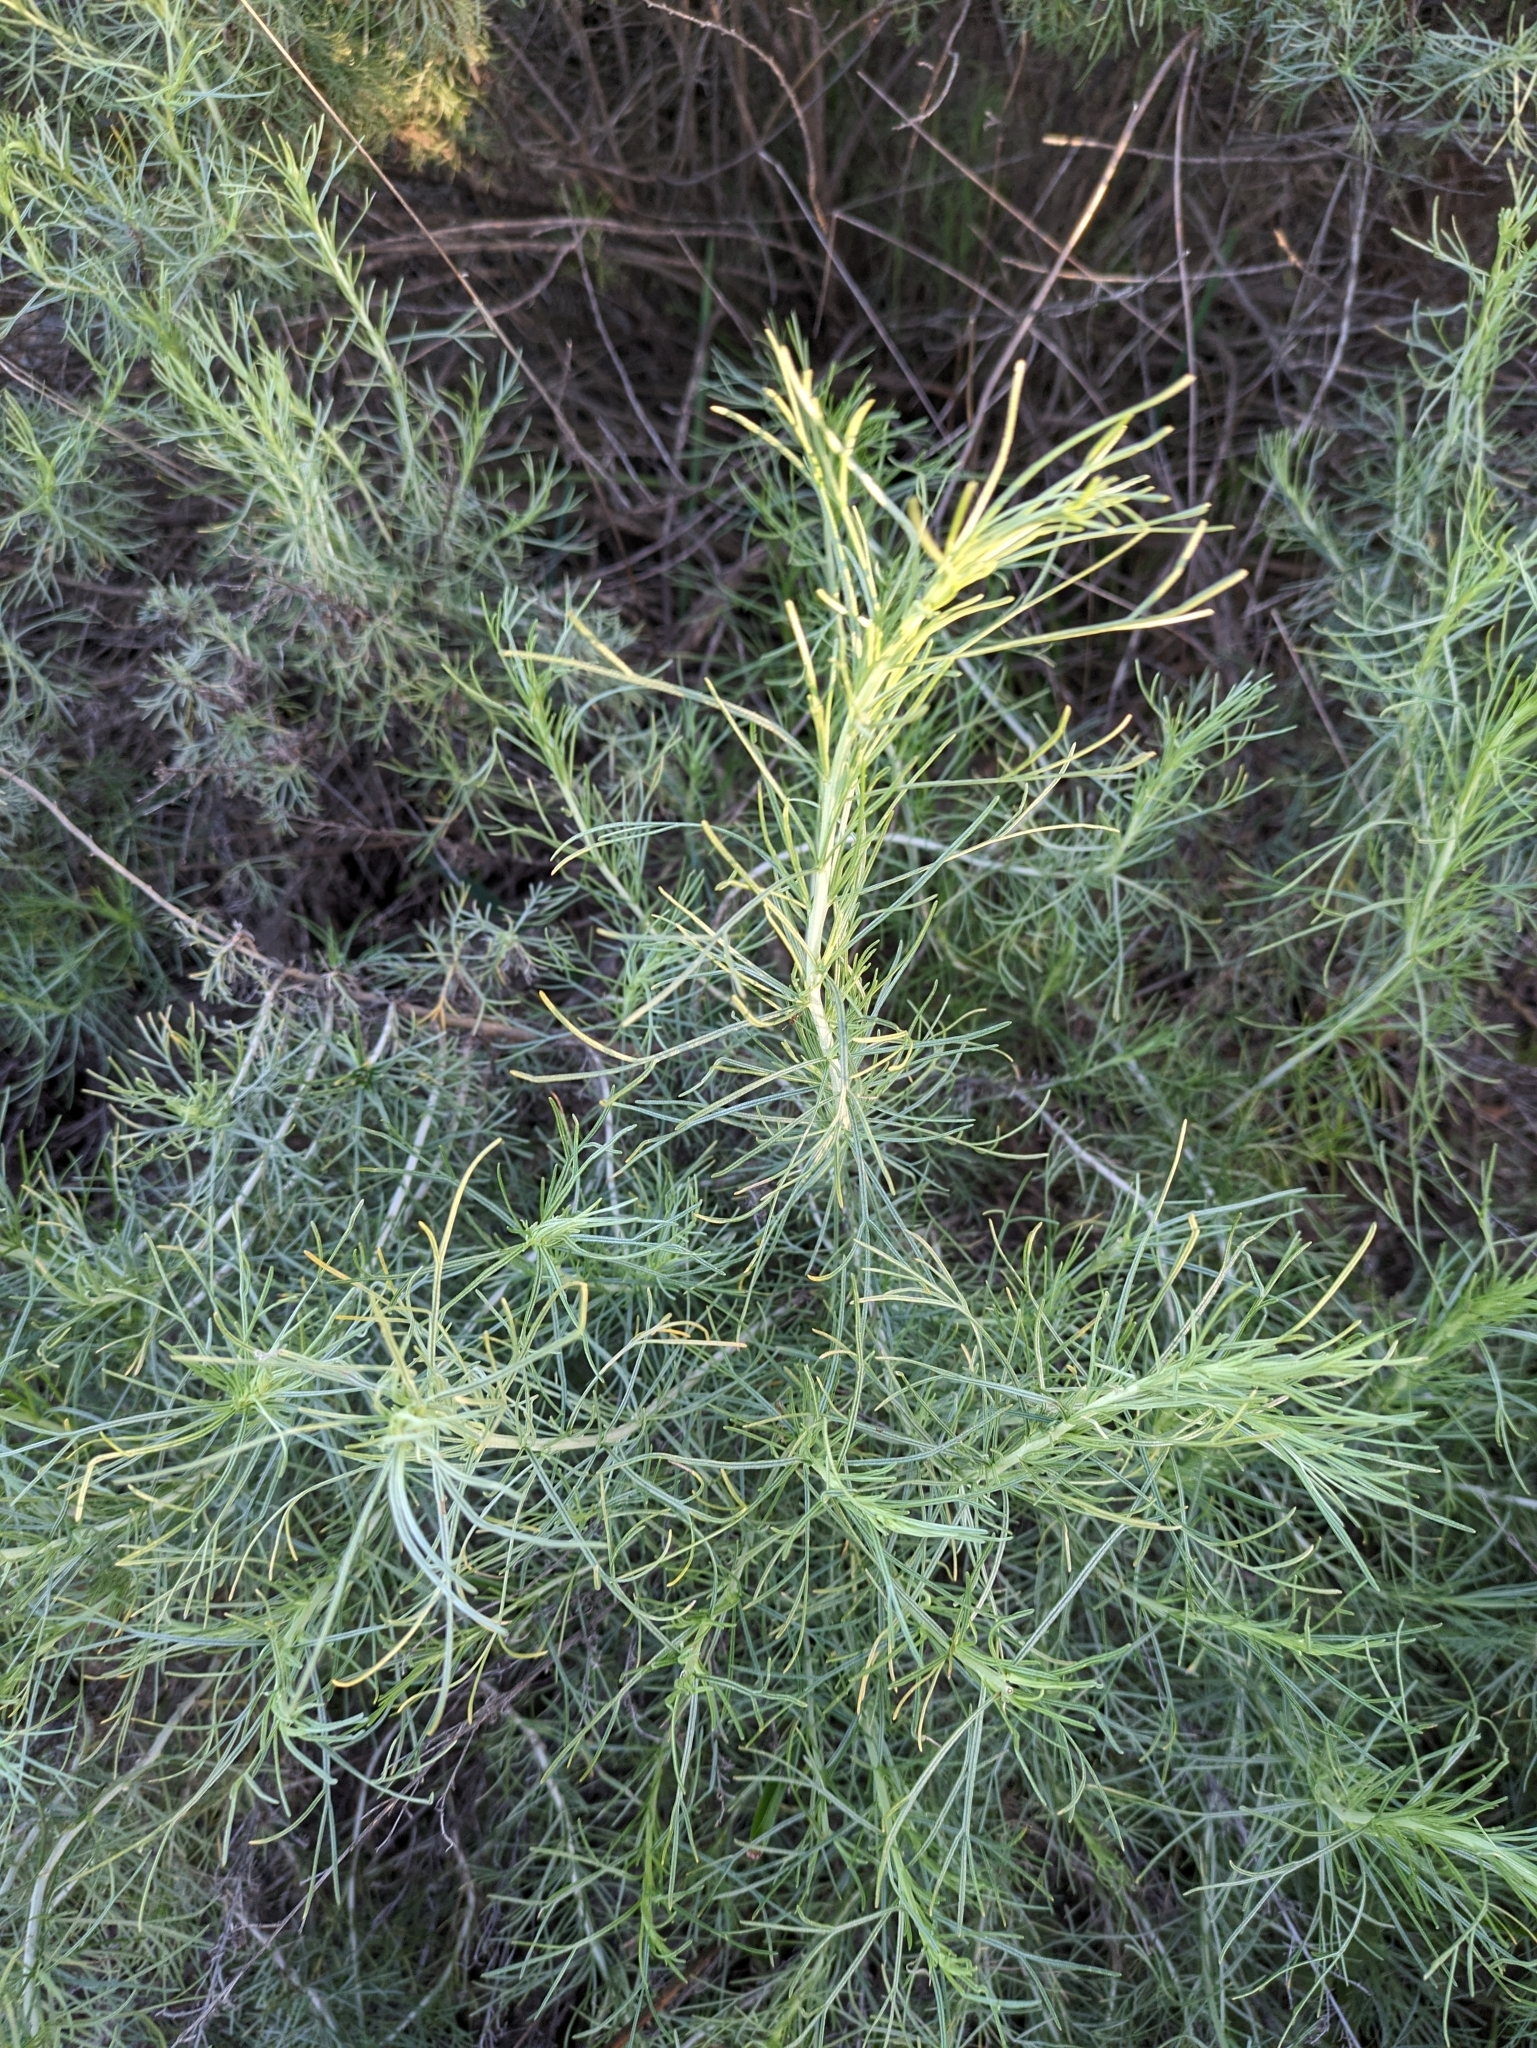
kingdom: Plantae
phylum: Tracheophyta
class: Magnoliopsida
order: Asterales
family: Asteraceae
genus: Artemisia
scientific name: Artemisia californica
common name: California sagebrush
